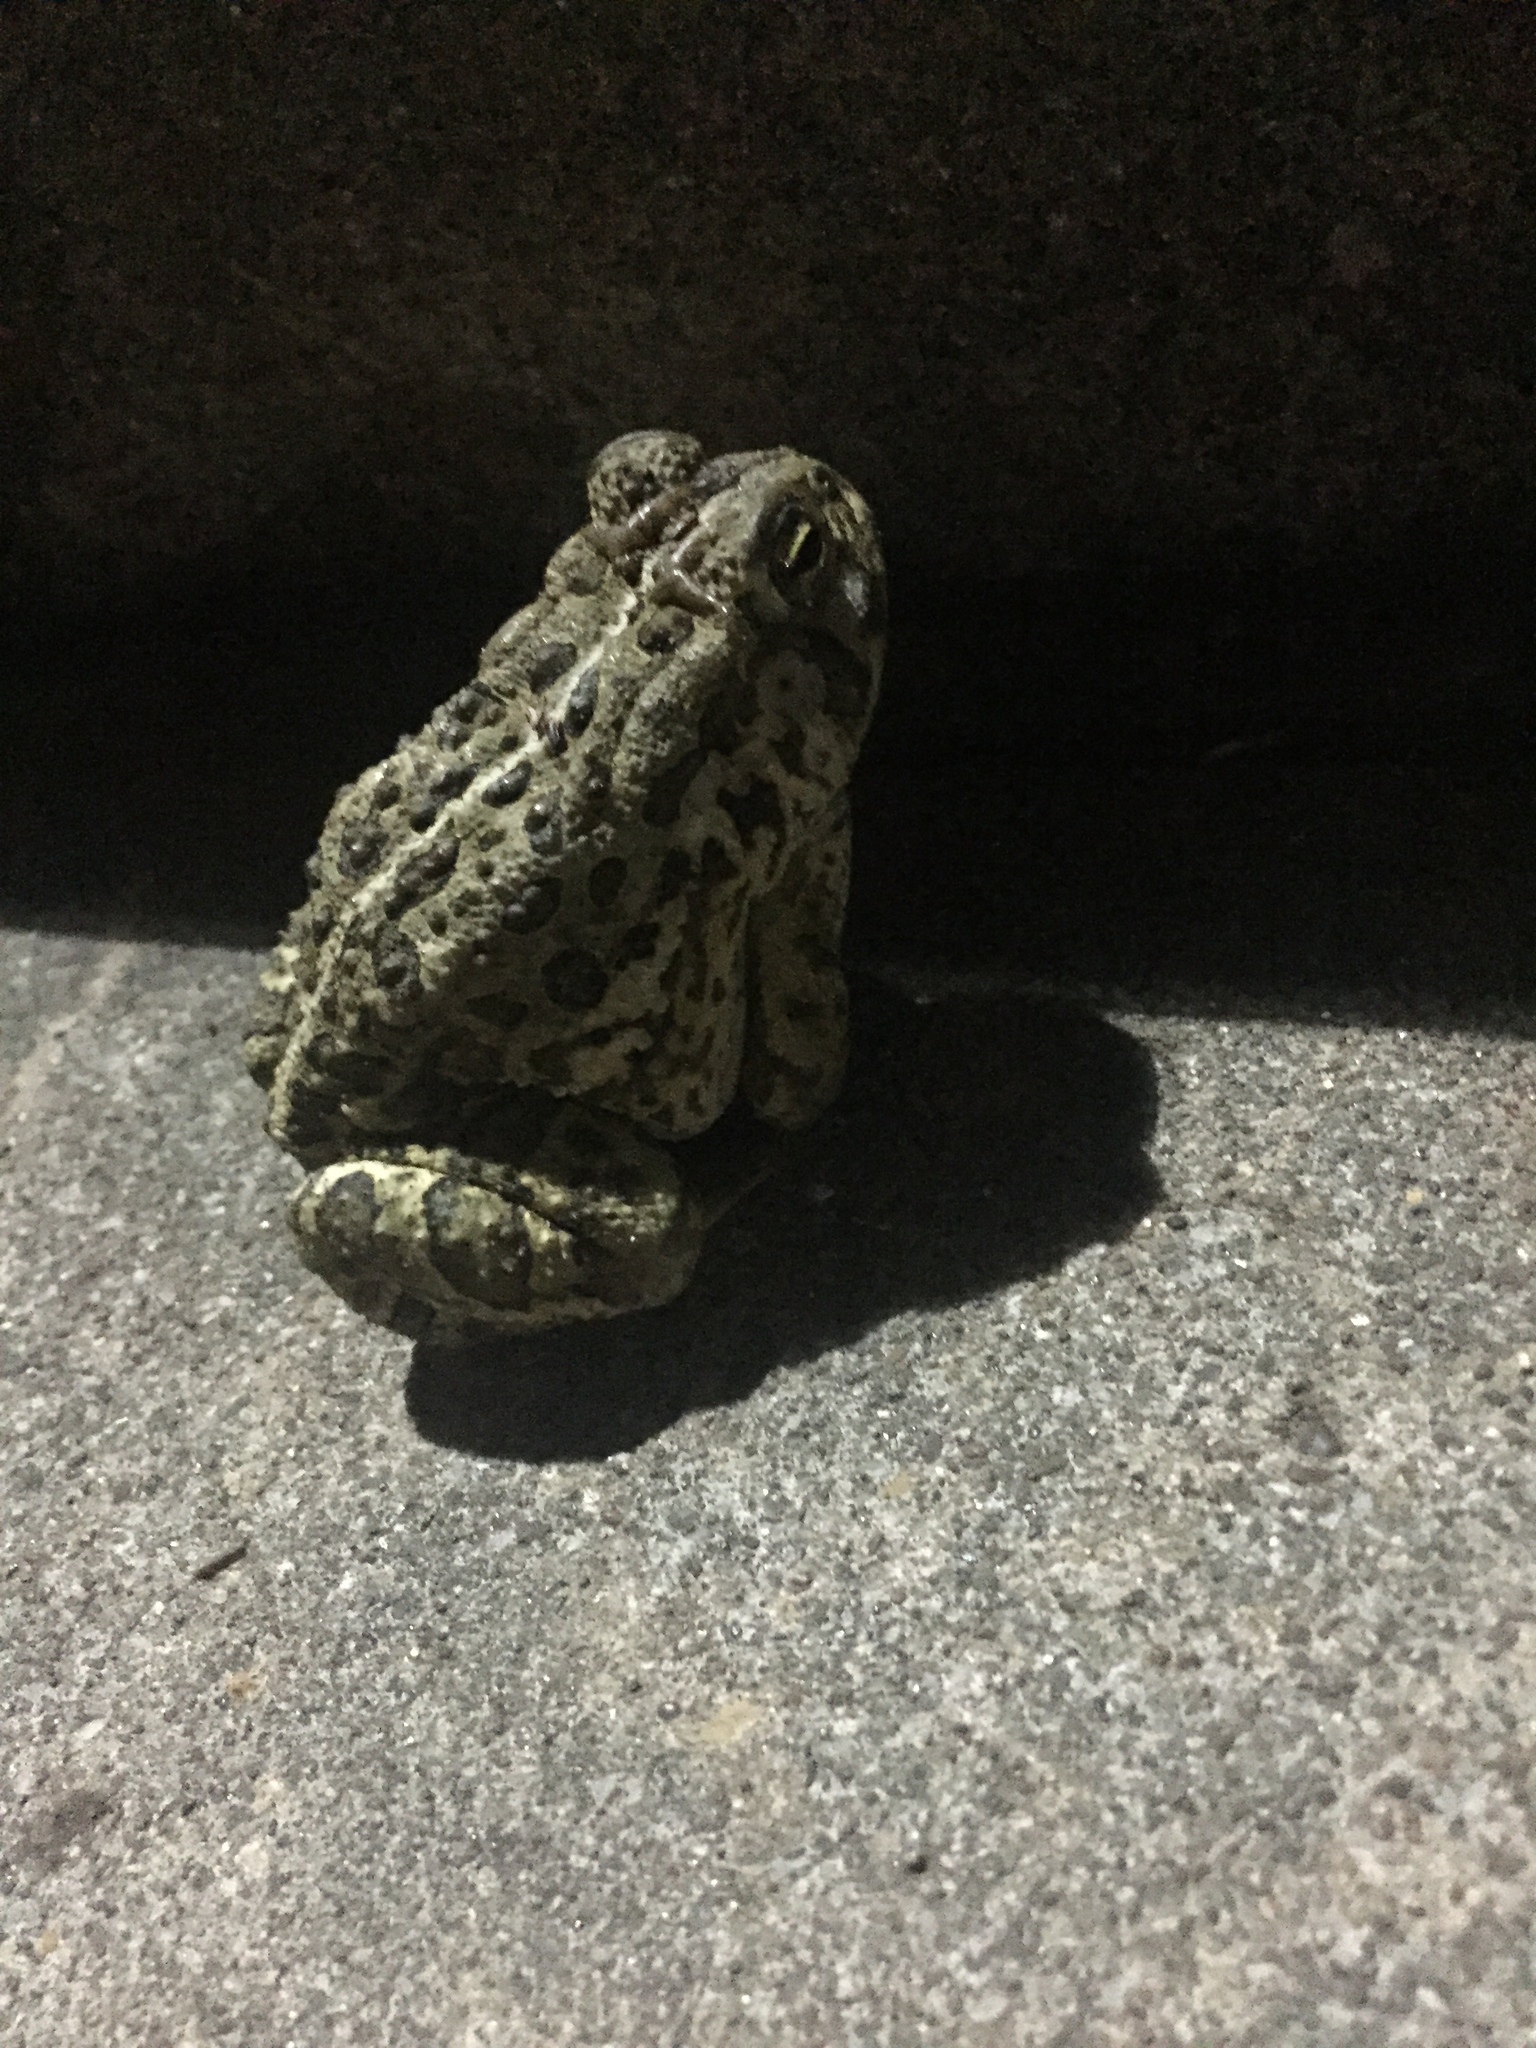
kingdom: Animalia
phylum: Chordata
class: Amphibia
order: Anura
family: Bufonidae
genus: Anaxyrus
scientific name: Anaxyrus woodhousii
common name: Woodhouse's toad
